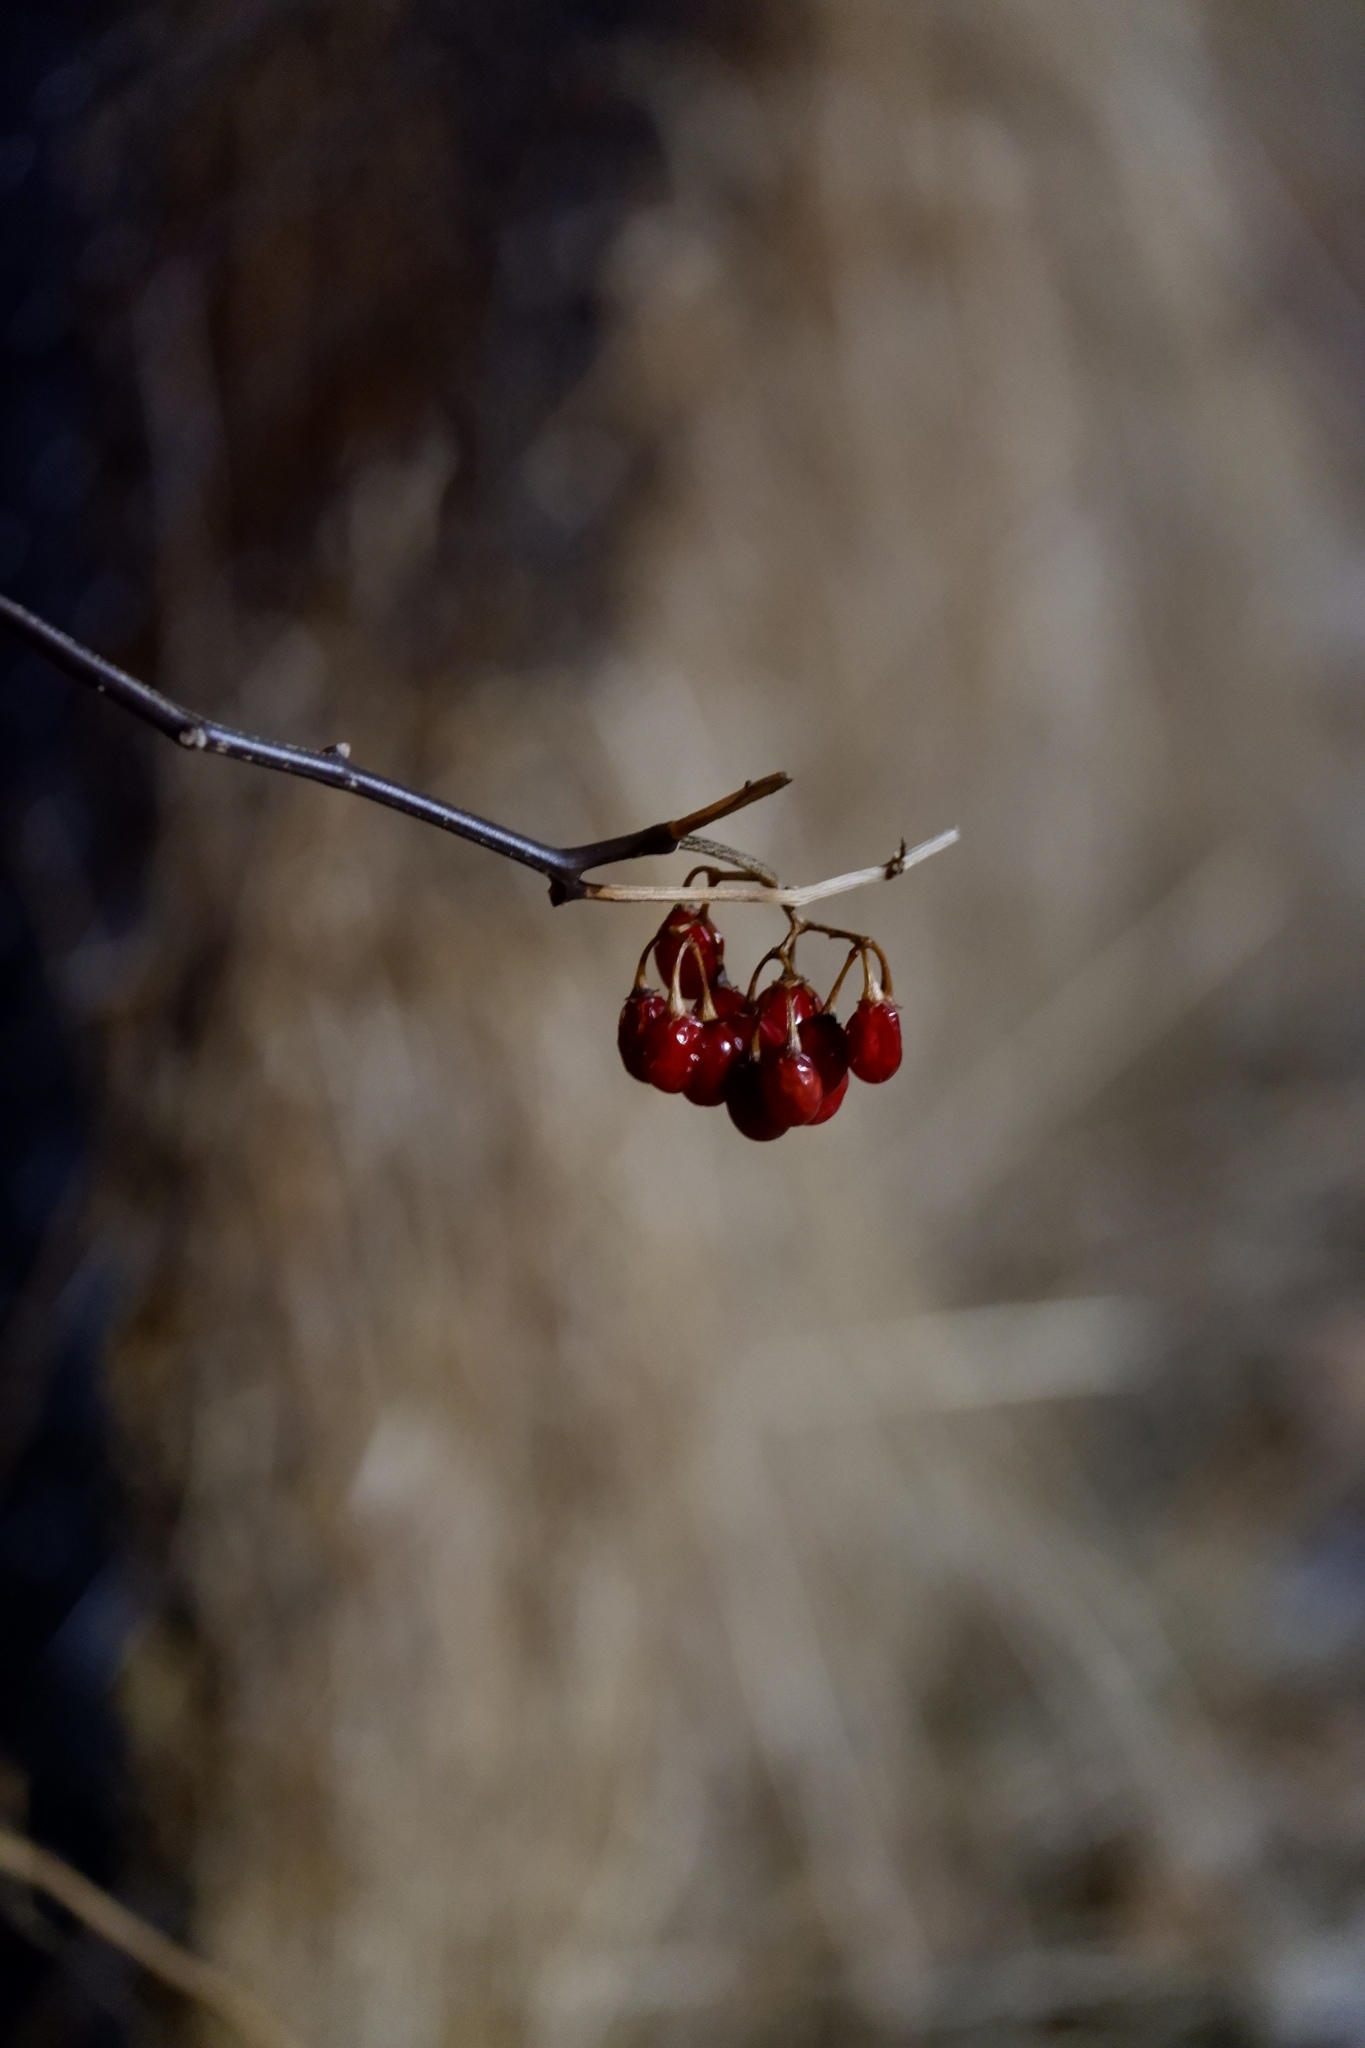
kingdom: Plantae
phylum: Tracheophyta
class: Magnoliopsida
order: Solanales
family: Solanaceae
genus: Solanum
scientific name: Solanum dulcamara
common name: Climbing nightshade
